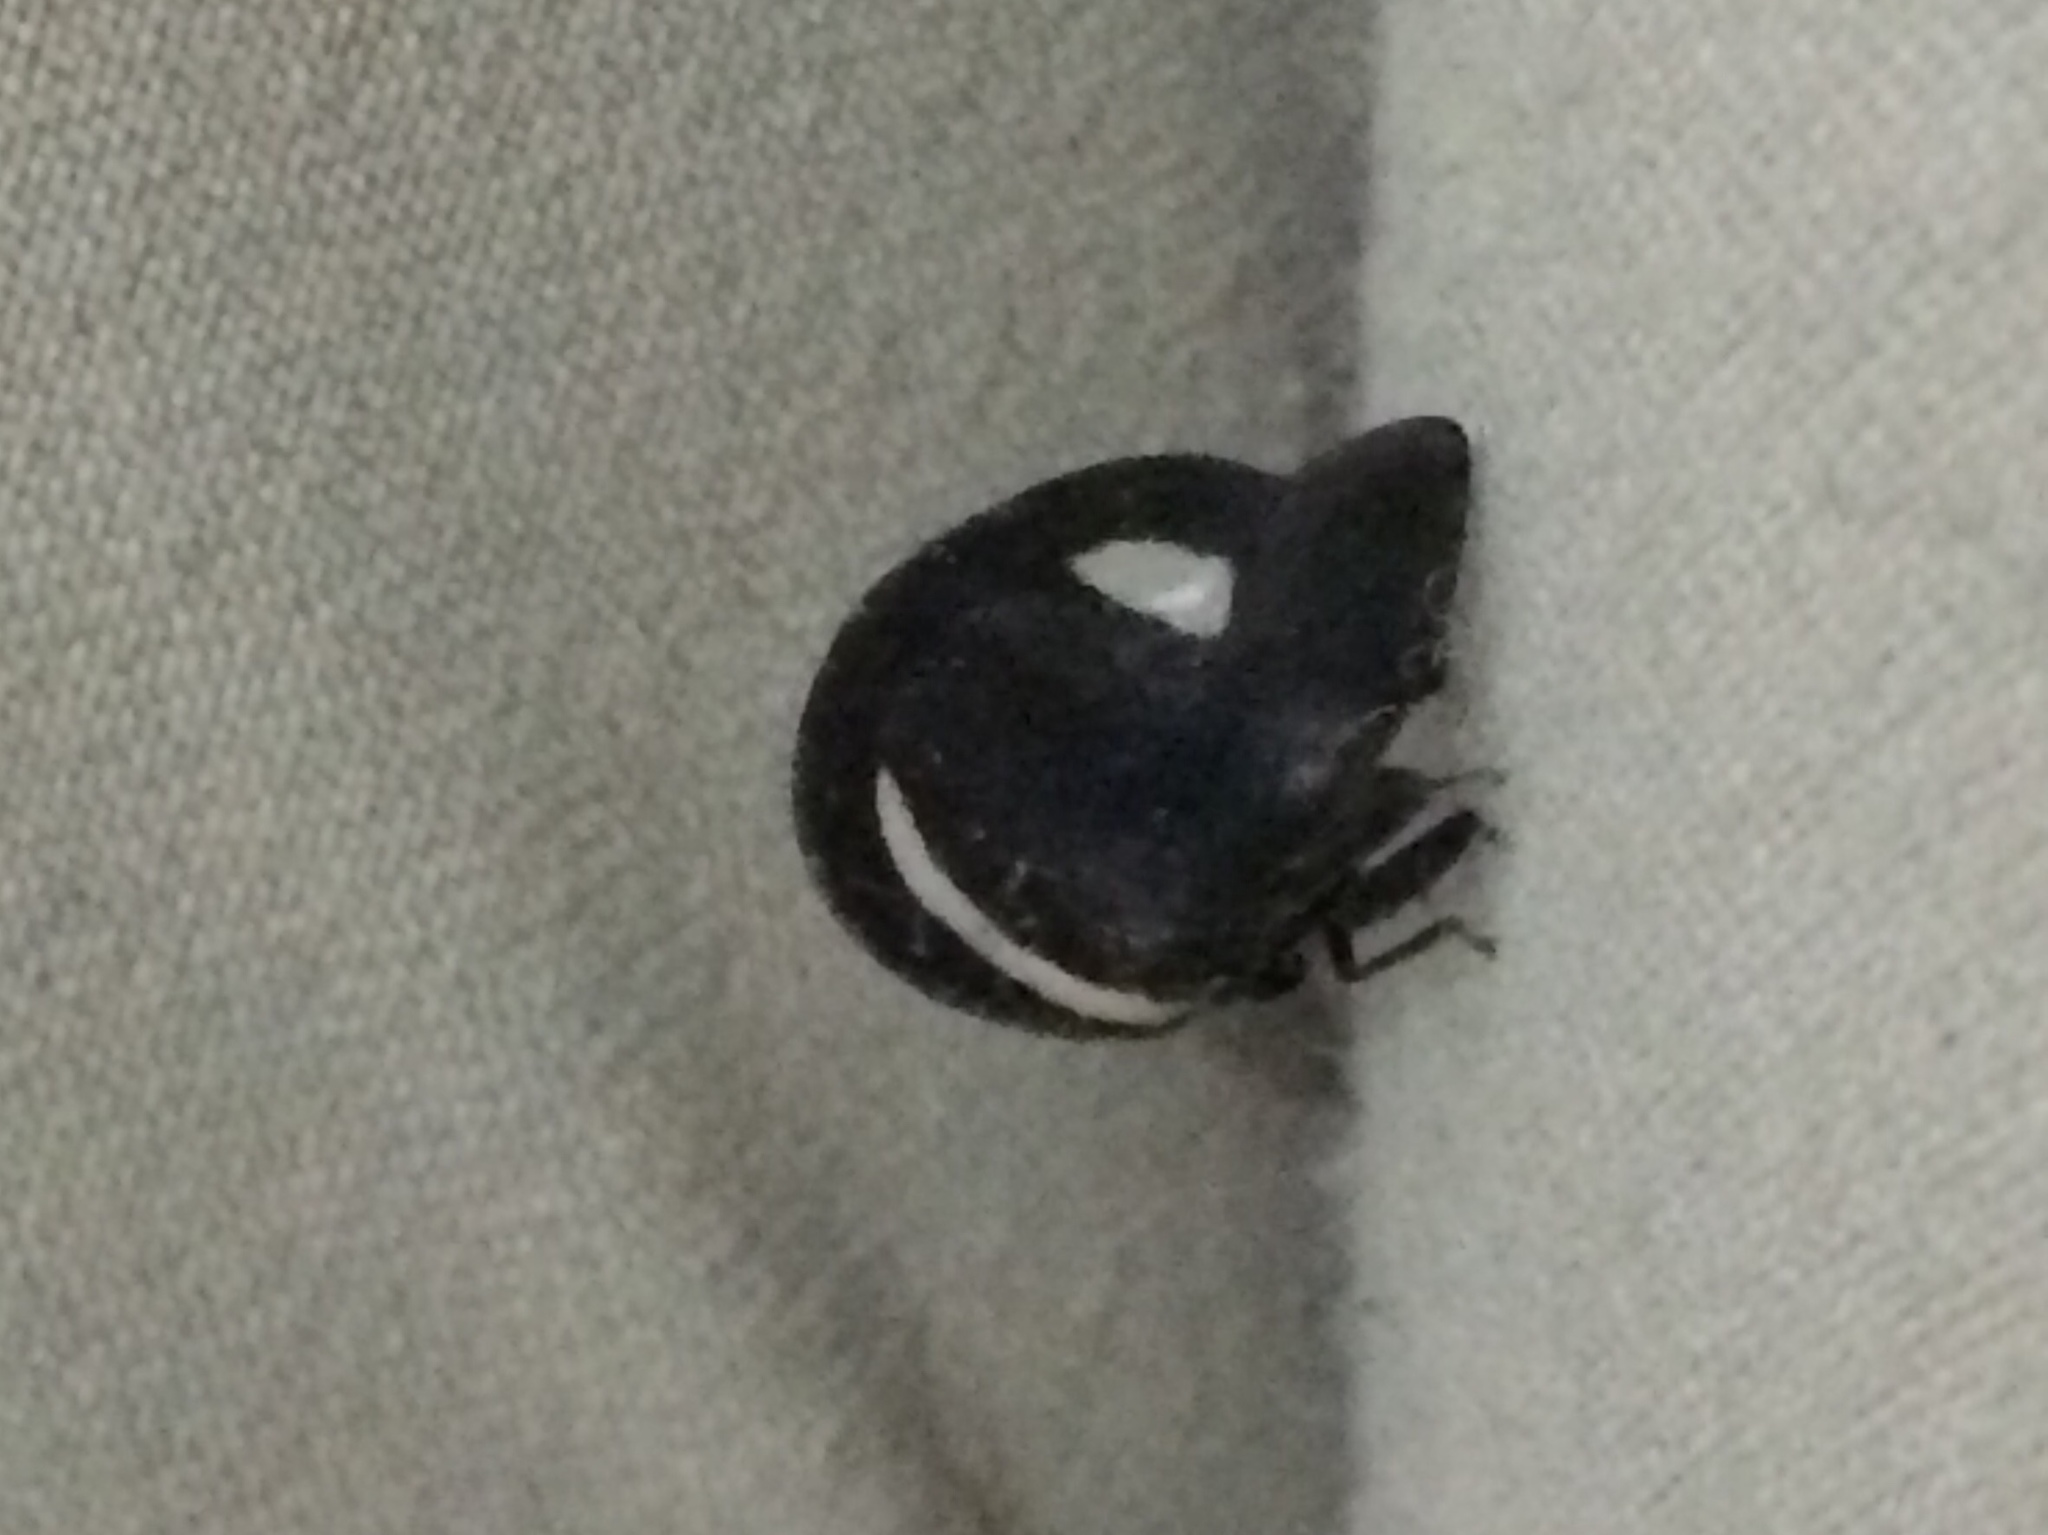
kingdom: Animalia
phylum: Arthropoda
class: Insecta
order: Hemiptera
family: Membracidae
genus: Membracis
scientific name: Membracis
